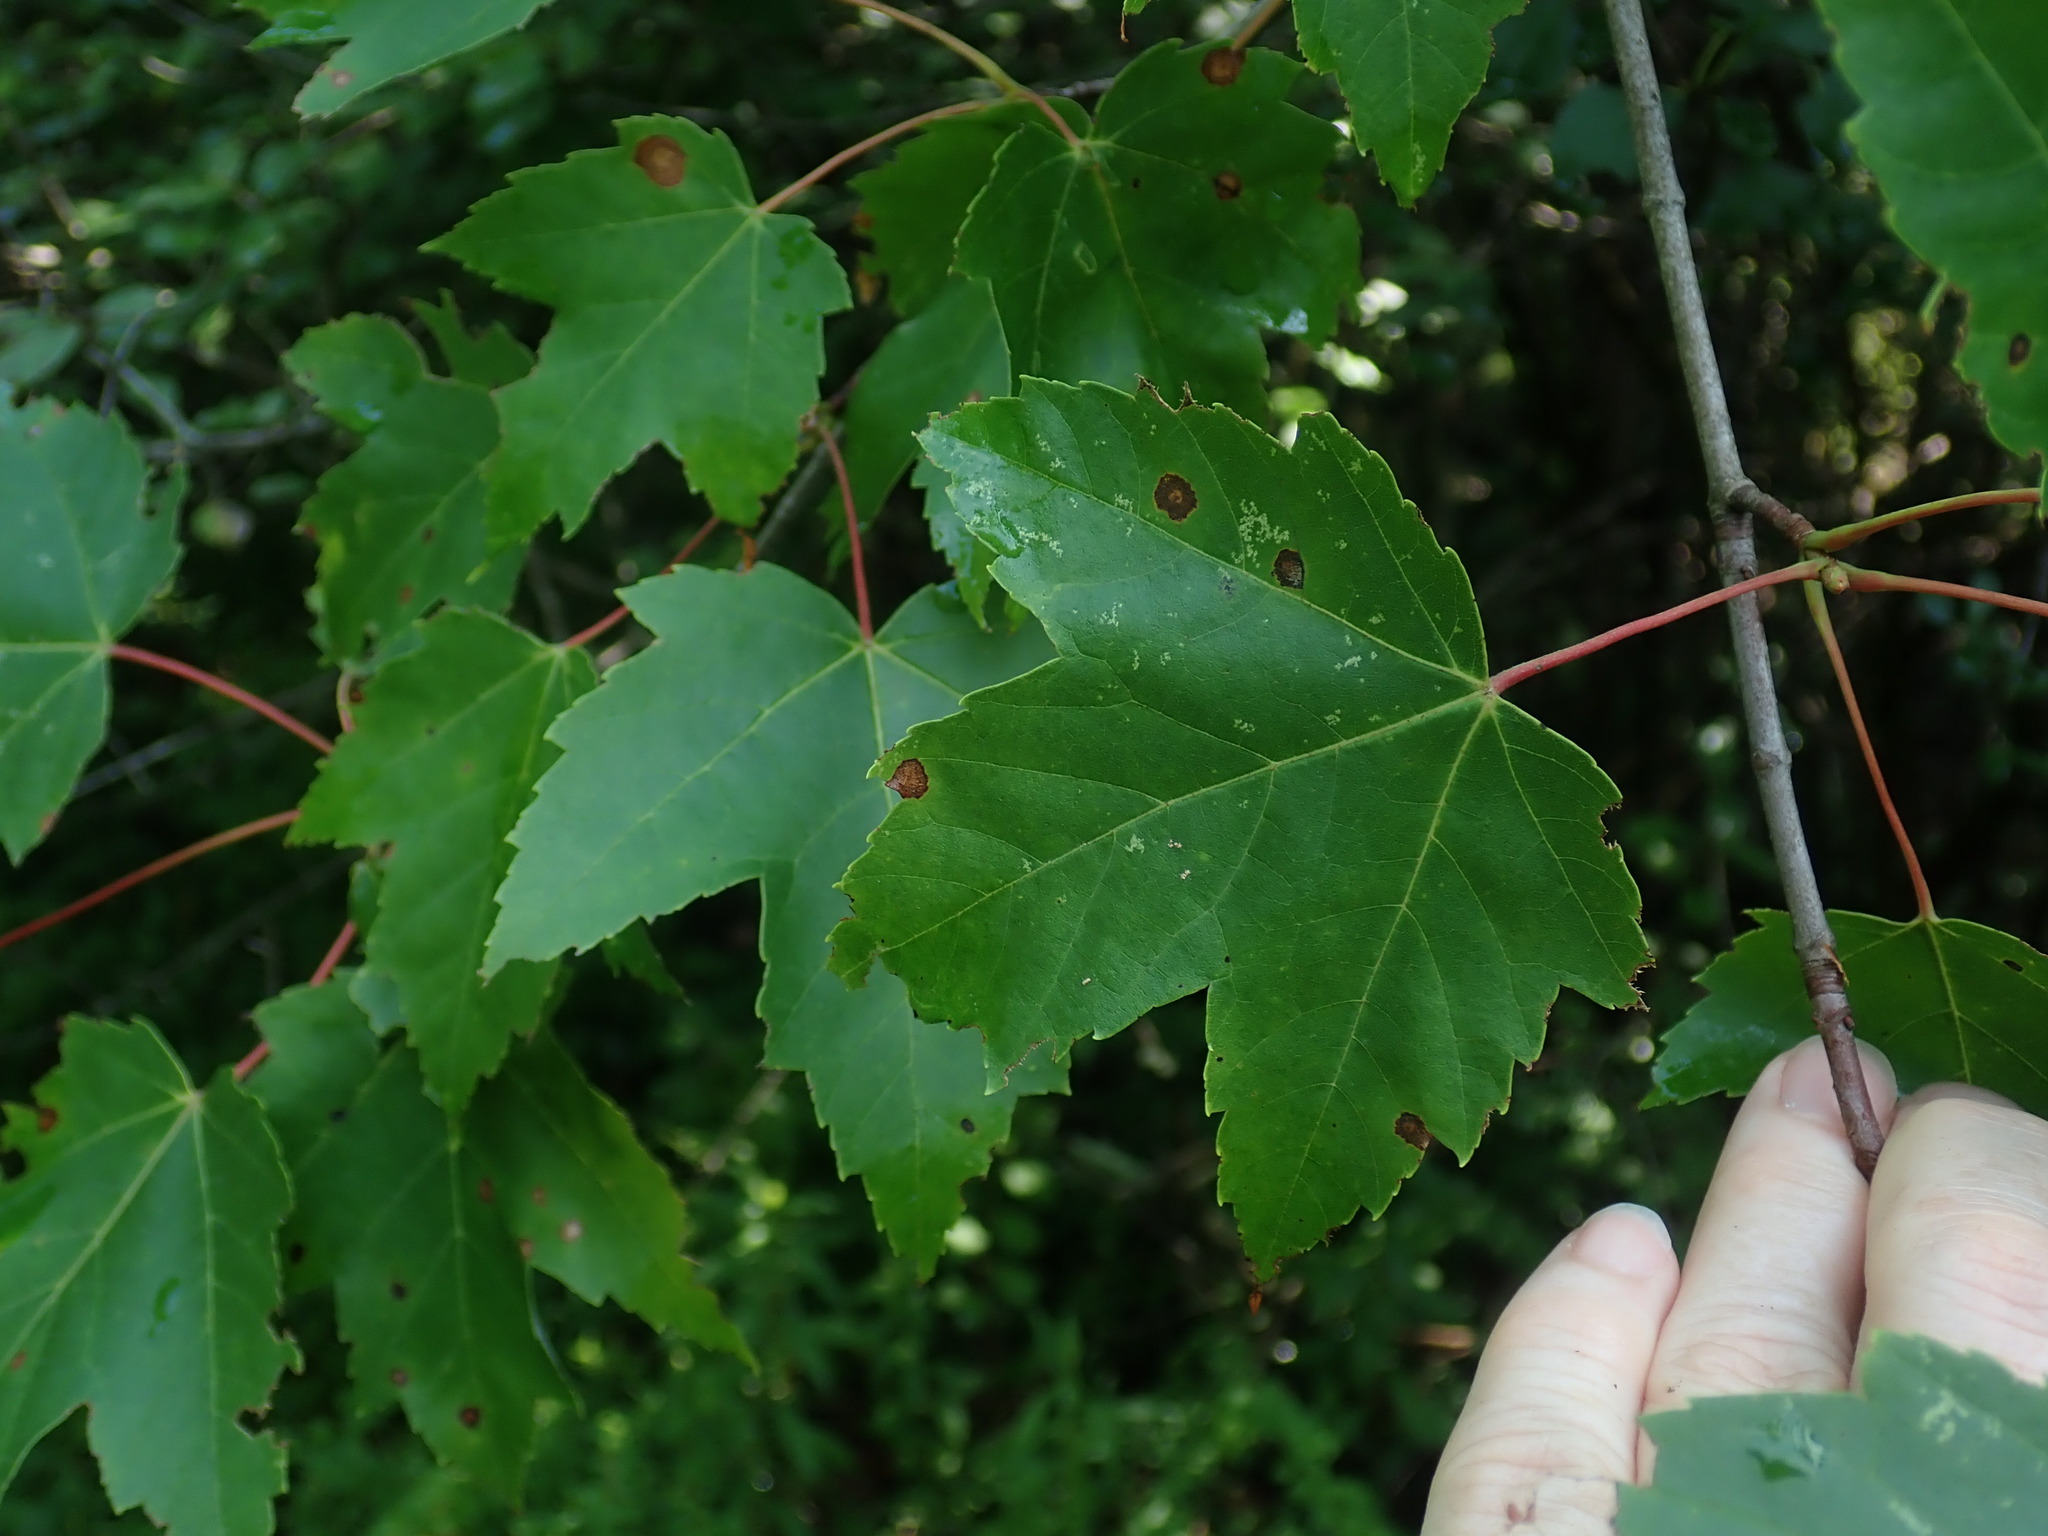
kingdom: Plantae
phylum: Tracheophyta
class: Magnoliopsida
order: Sapindales
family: Sapindaceae
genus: Acer
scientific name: Acer rubrum
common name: Red maple
